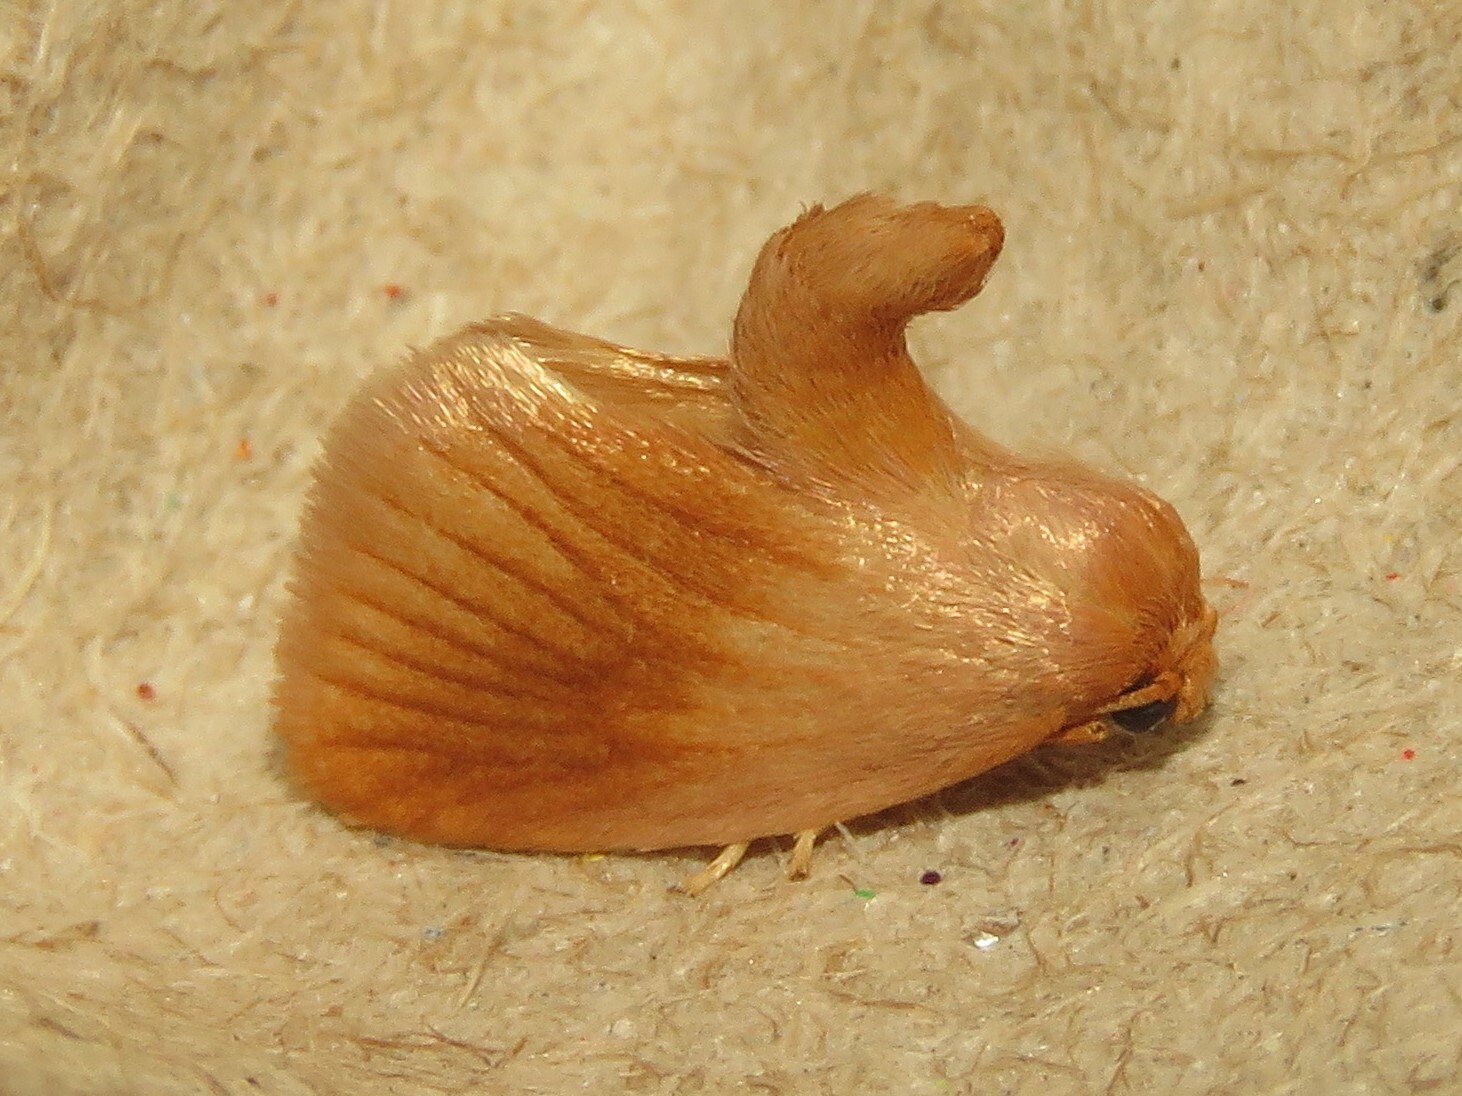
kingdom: Animalia
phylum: Arthropoda
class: Insecta
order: Lepidoptera
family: Limacodidae
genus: Tortricidia
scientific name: Tortricidia testacea
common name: Early button slug moth
